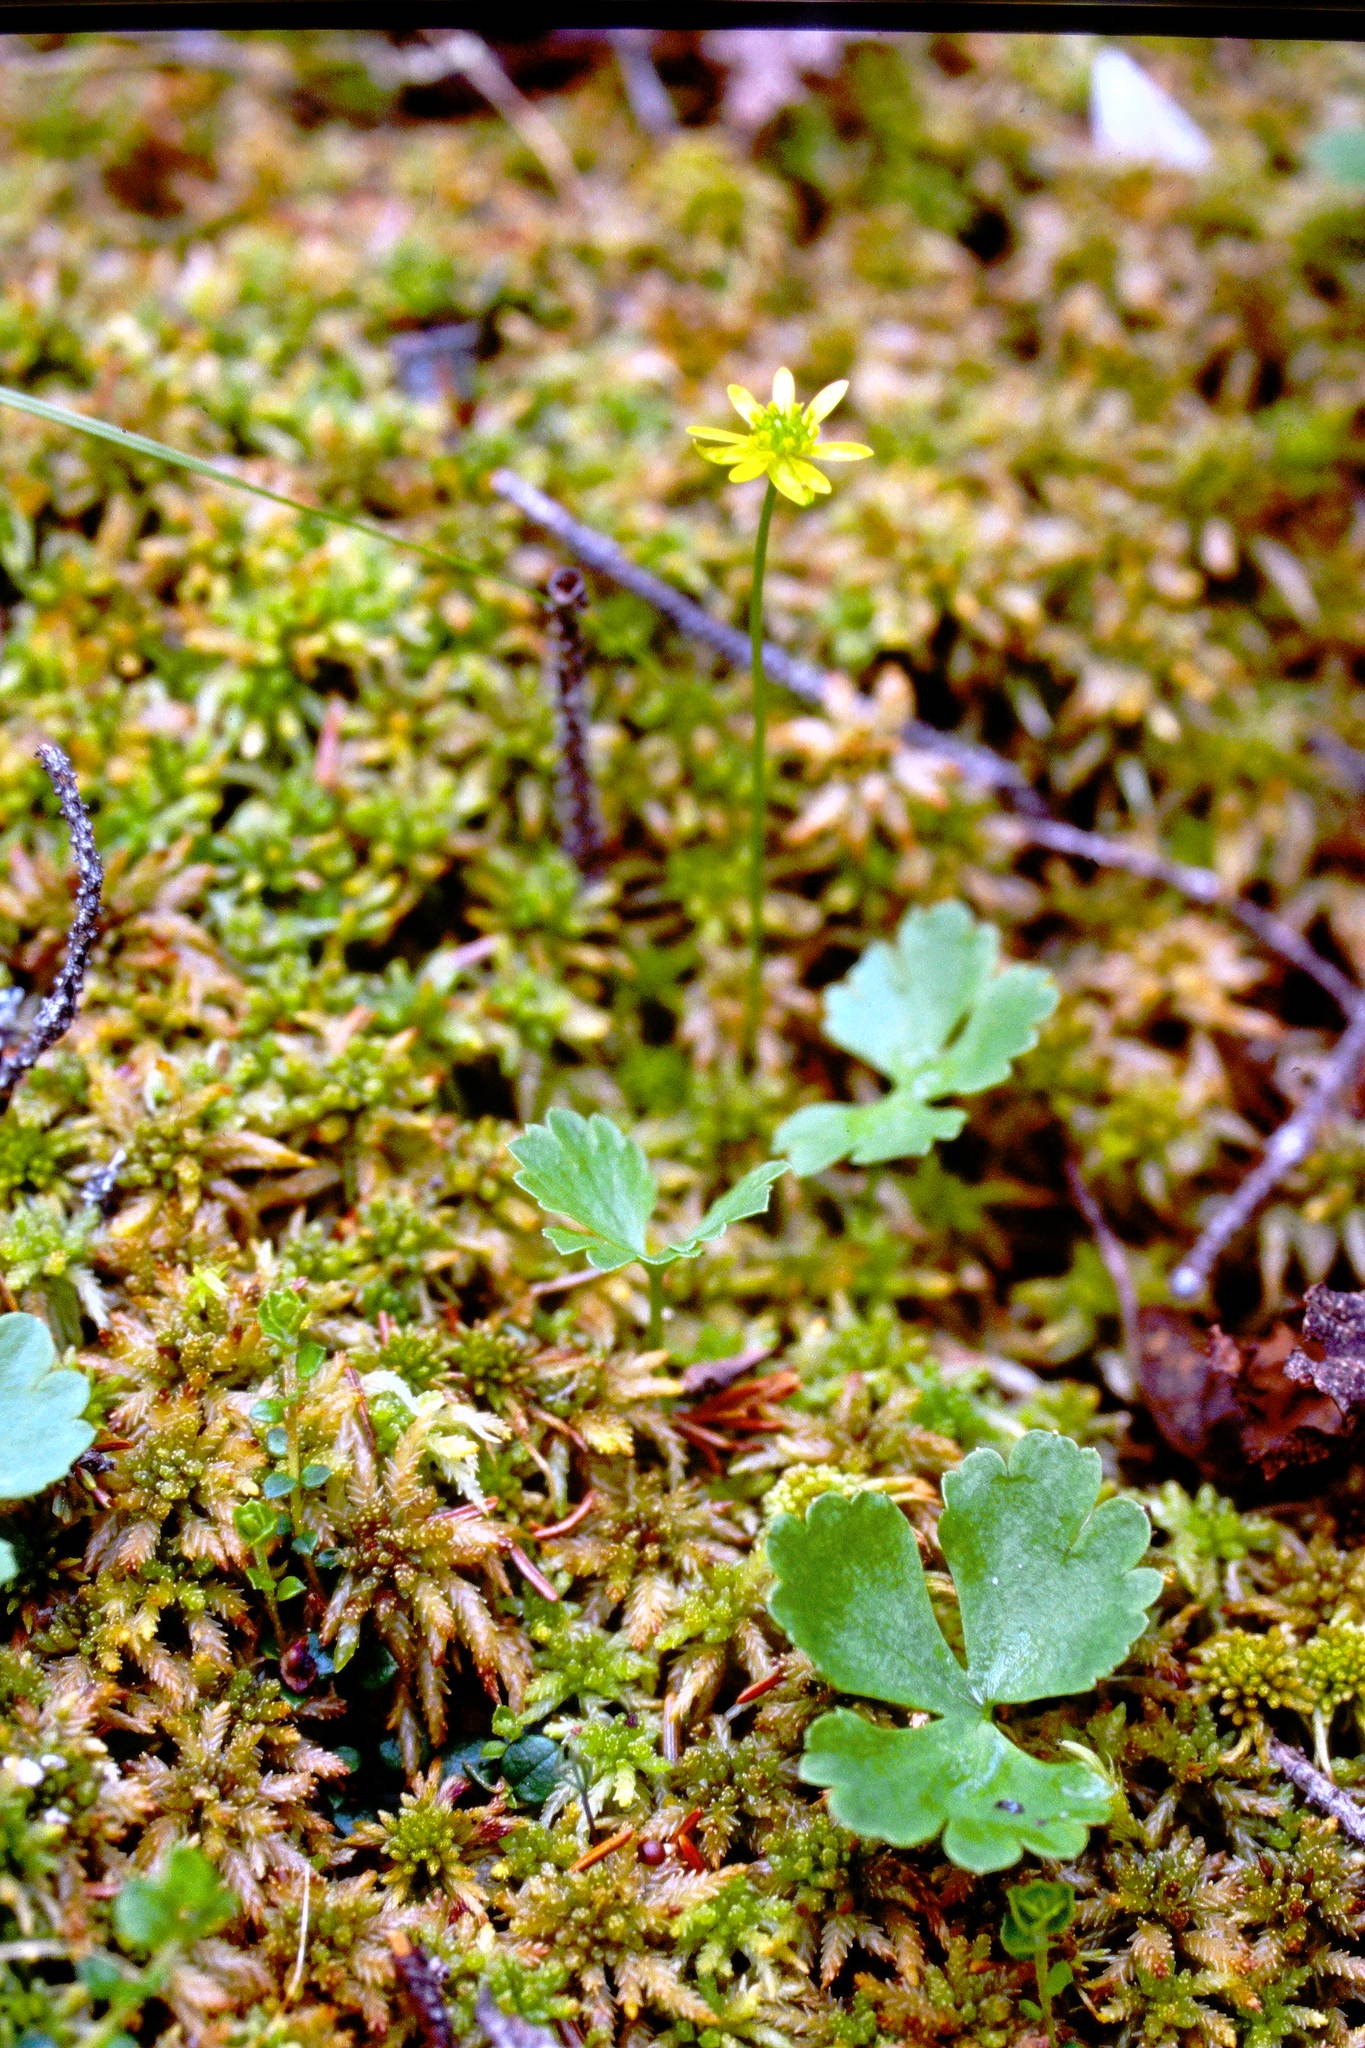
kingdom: Plantae
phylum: Tracheophyta
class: Magnoliopsida
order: Ranunculales
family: Ranunculaceae
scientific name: Ranunculaceae
